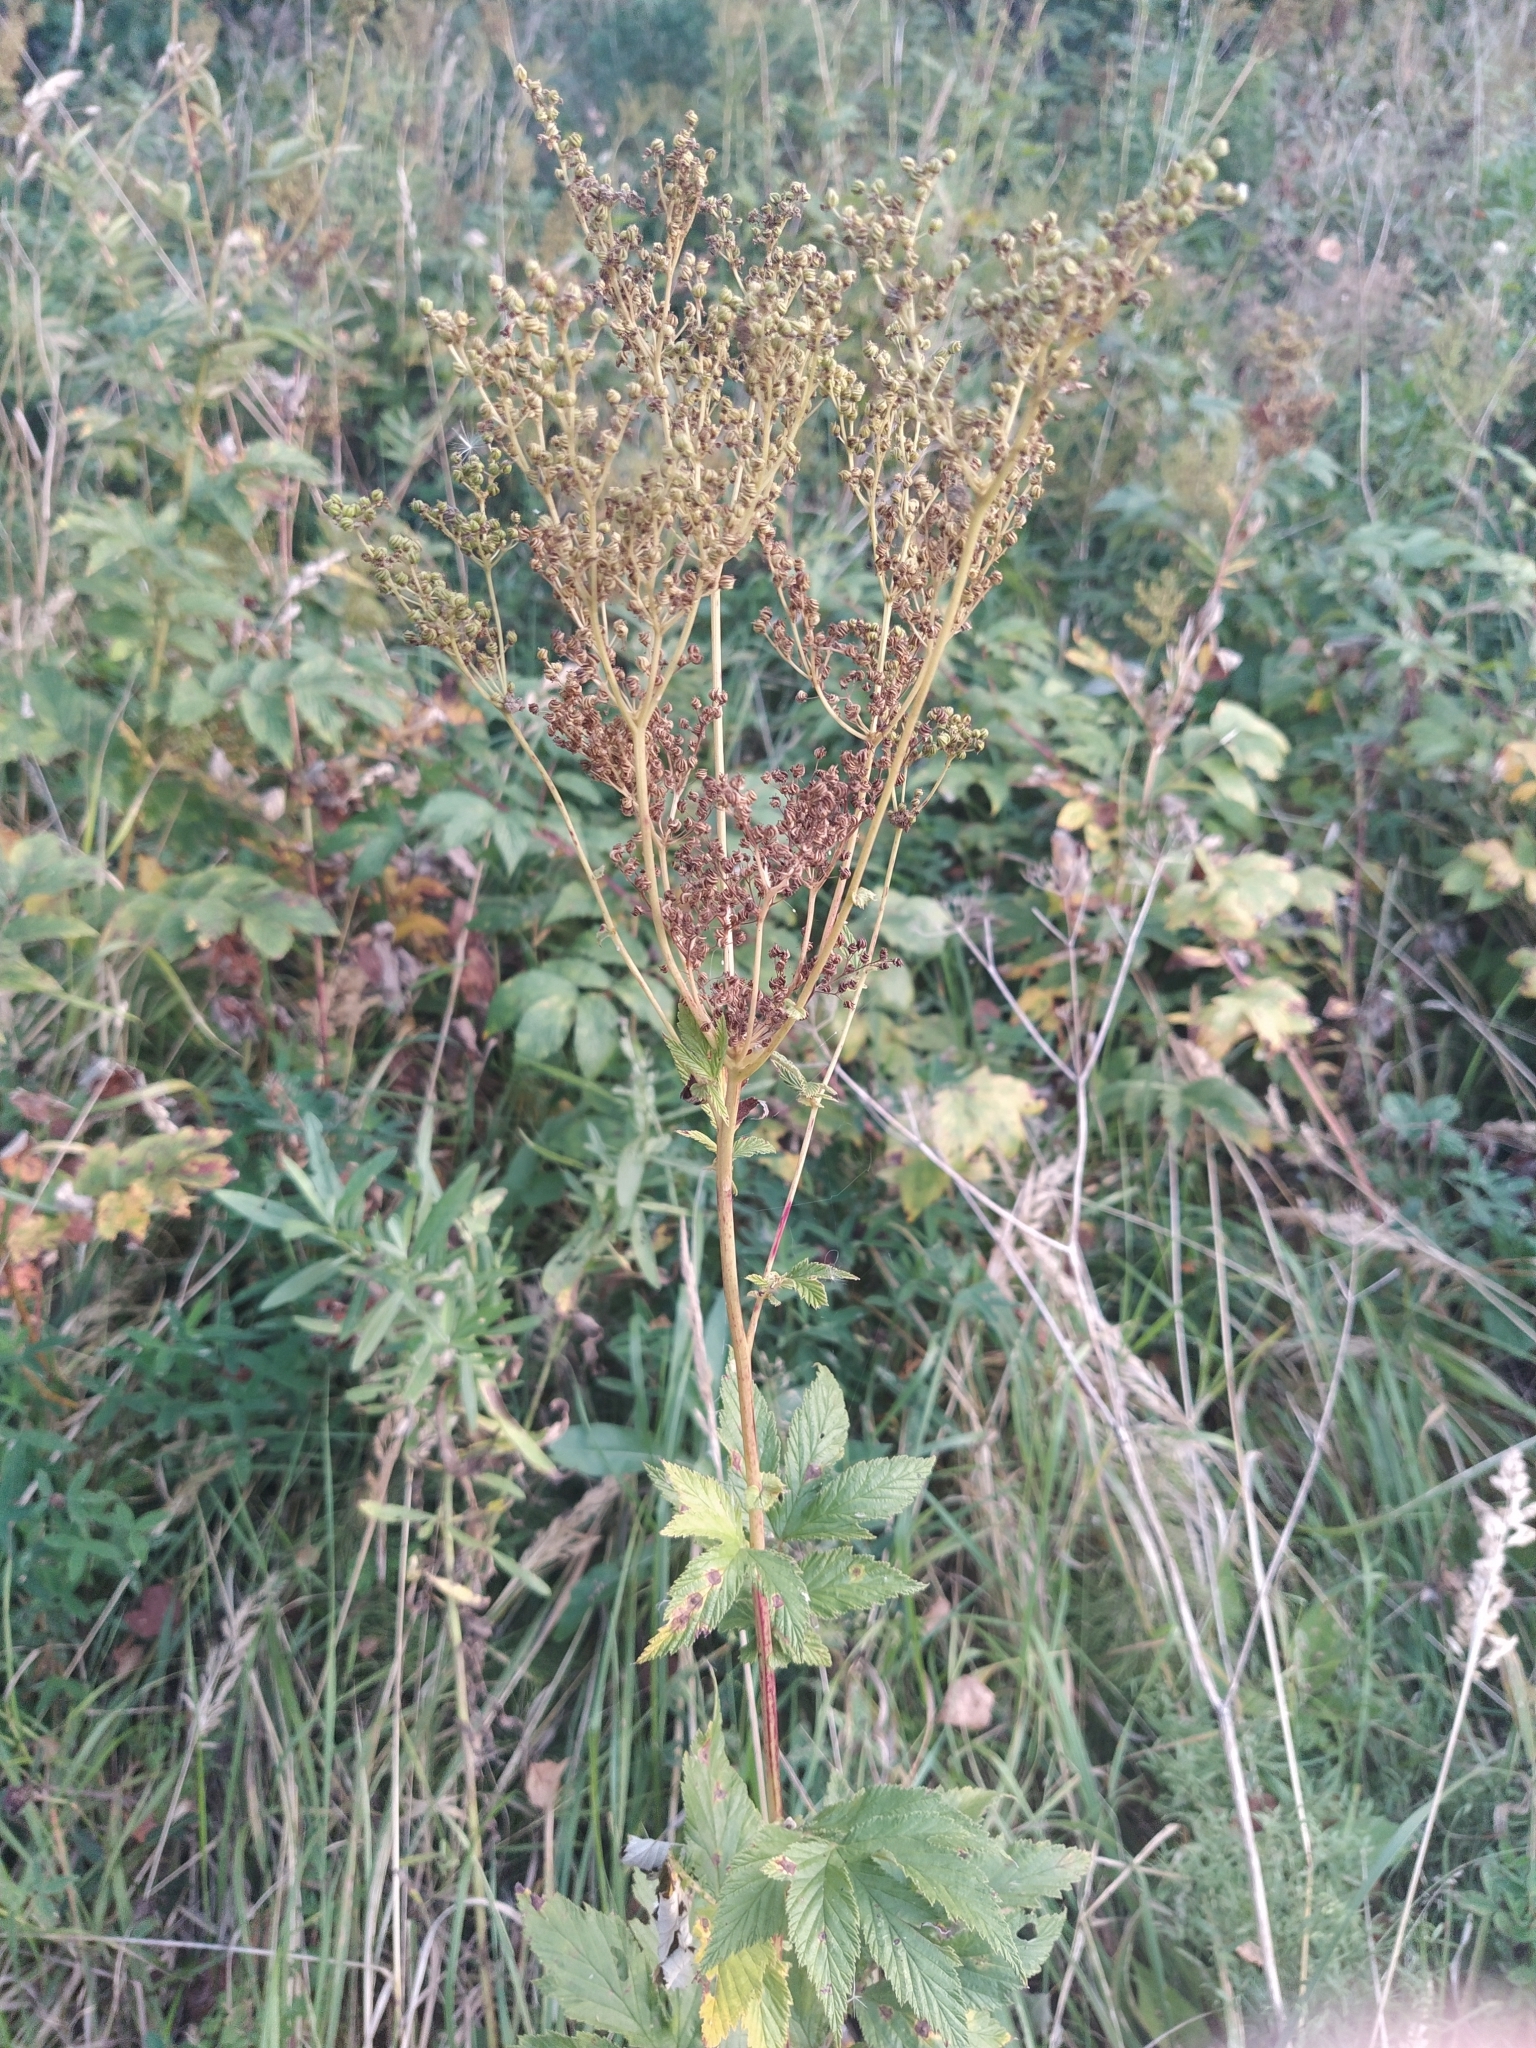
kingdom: Plantae
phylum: Tracheophyta
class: Magnoliopsida
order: Rosales
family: Rosaceae
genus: Filipendula
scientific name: Filipendula ulmaria
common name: Meadowsweet
